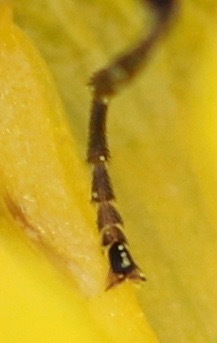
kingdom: Animalia
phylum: Arthropoda
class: Insecta
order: Diptera
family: Syrphidae
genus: Cheilosia
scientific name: Cheilosia
